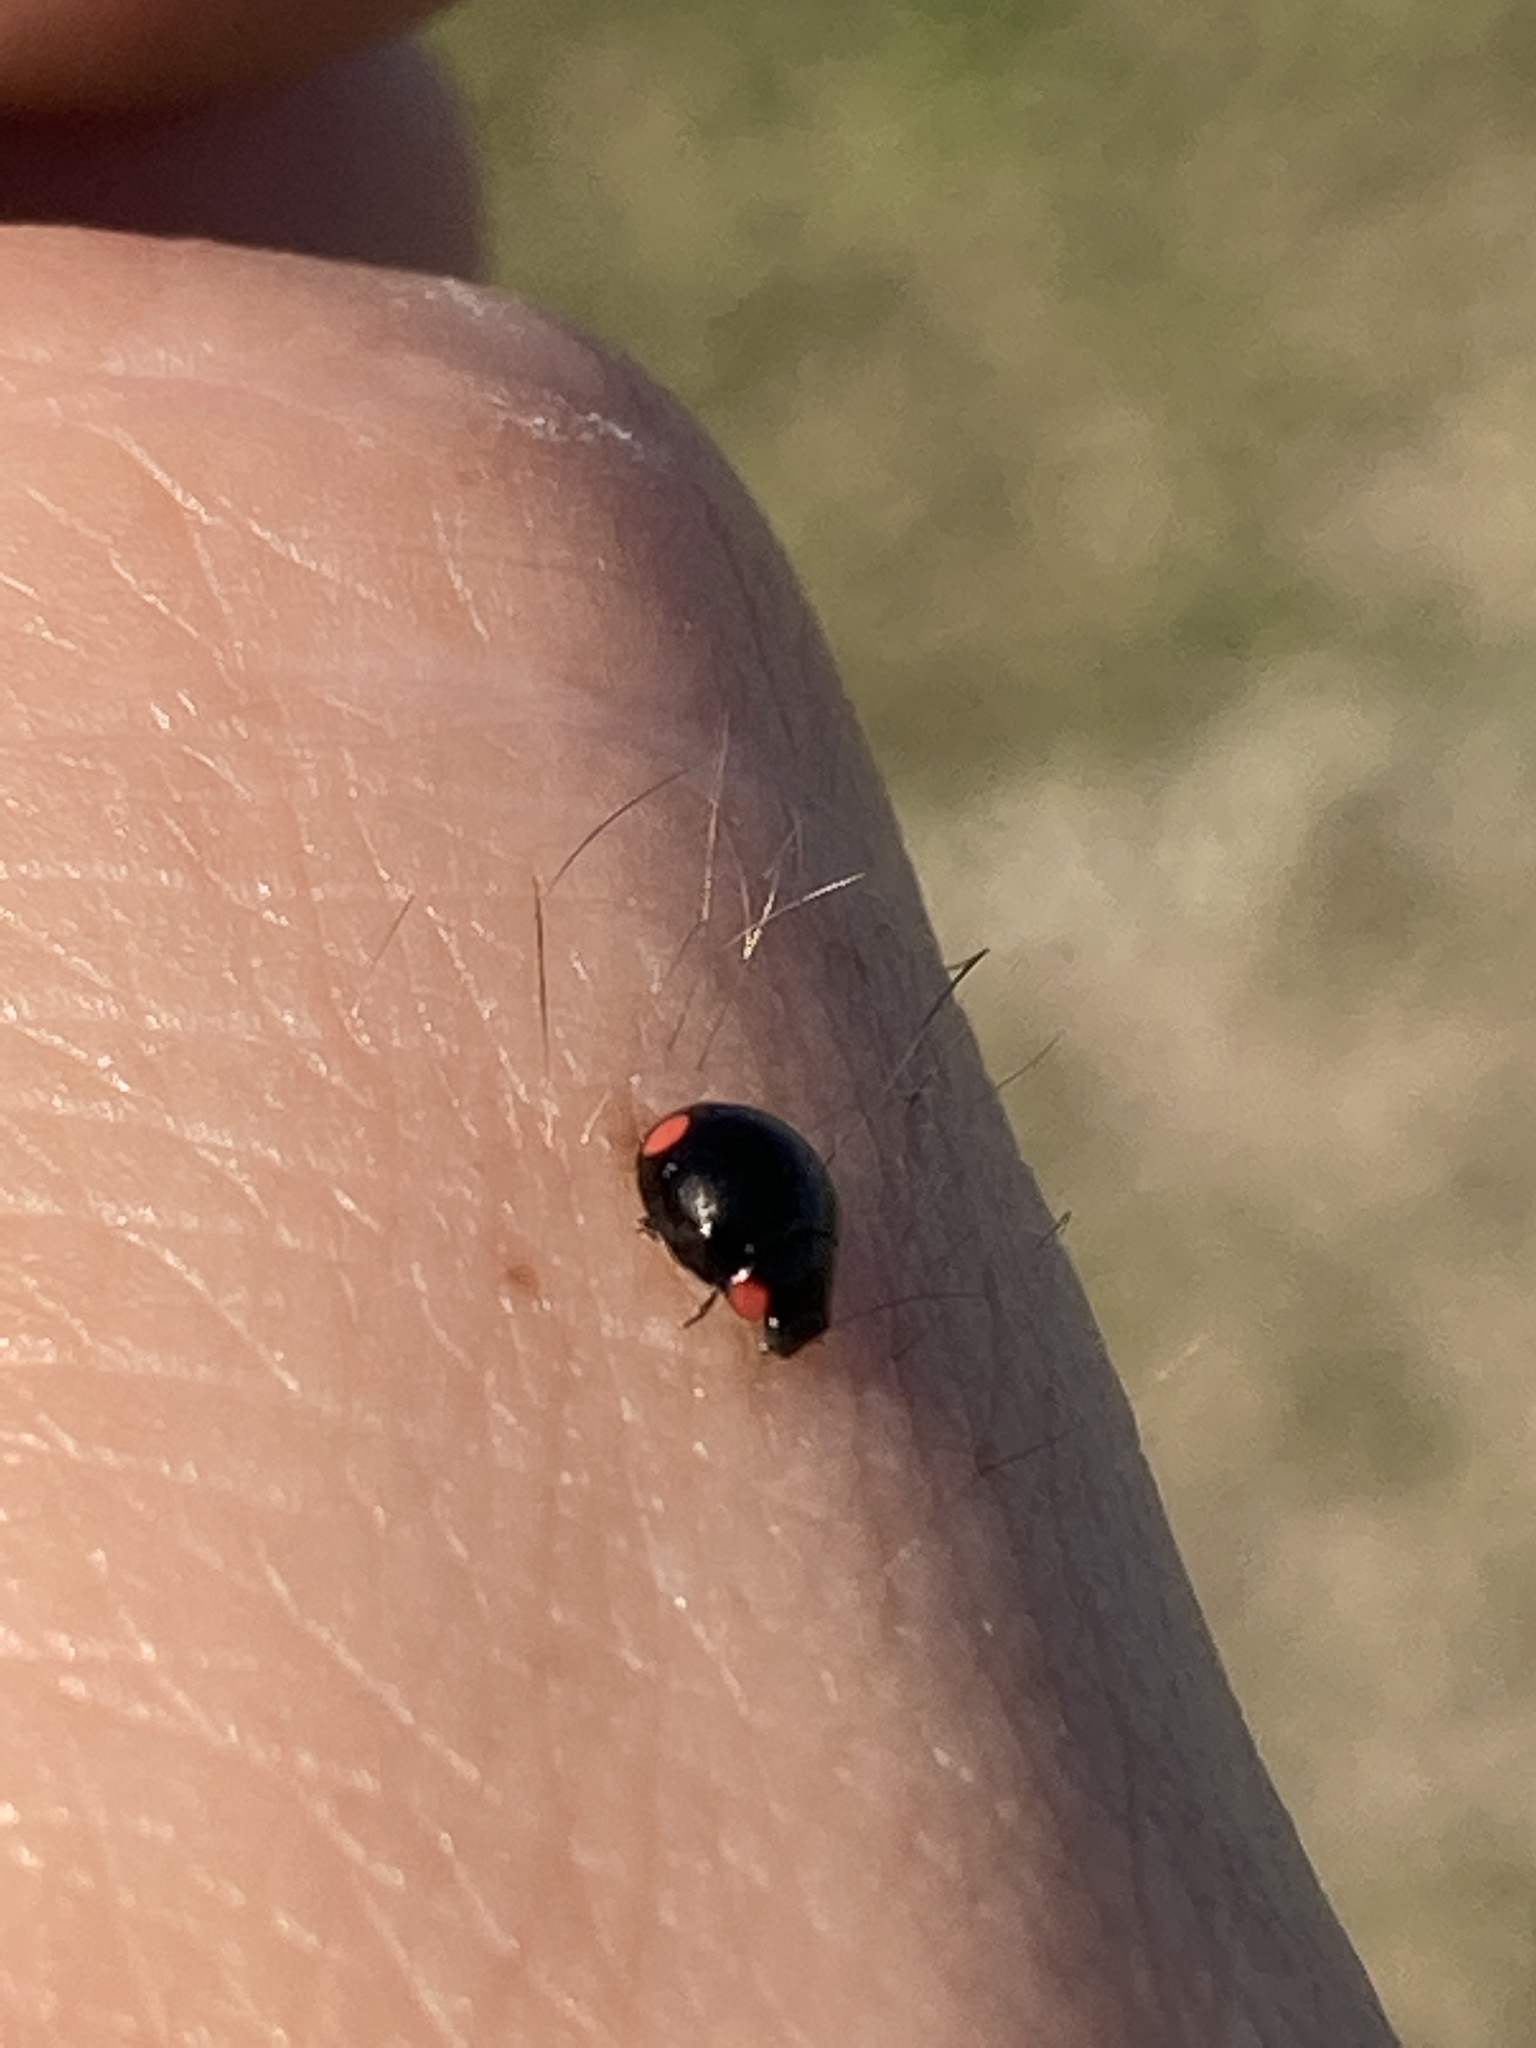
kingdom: Animalia
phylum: Arthropoda
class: Insecta
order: Coleoptera
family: Coccinellidae
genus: Hyperaspis
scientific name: Hyperaspis bigeminata
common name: Bigeminate sigil lady beetle
